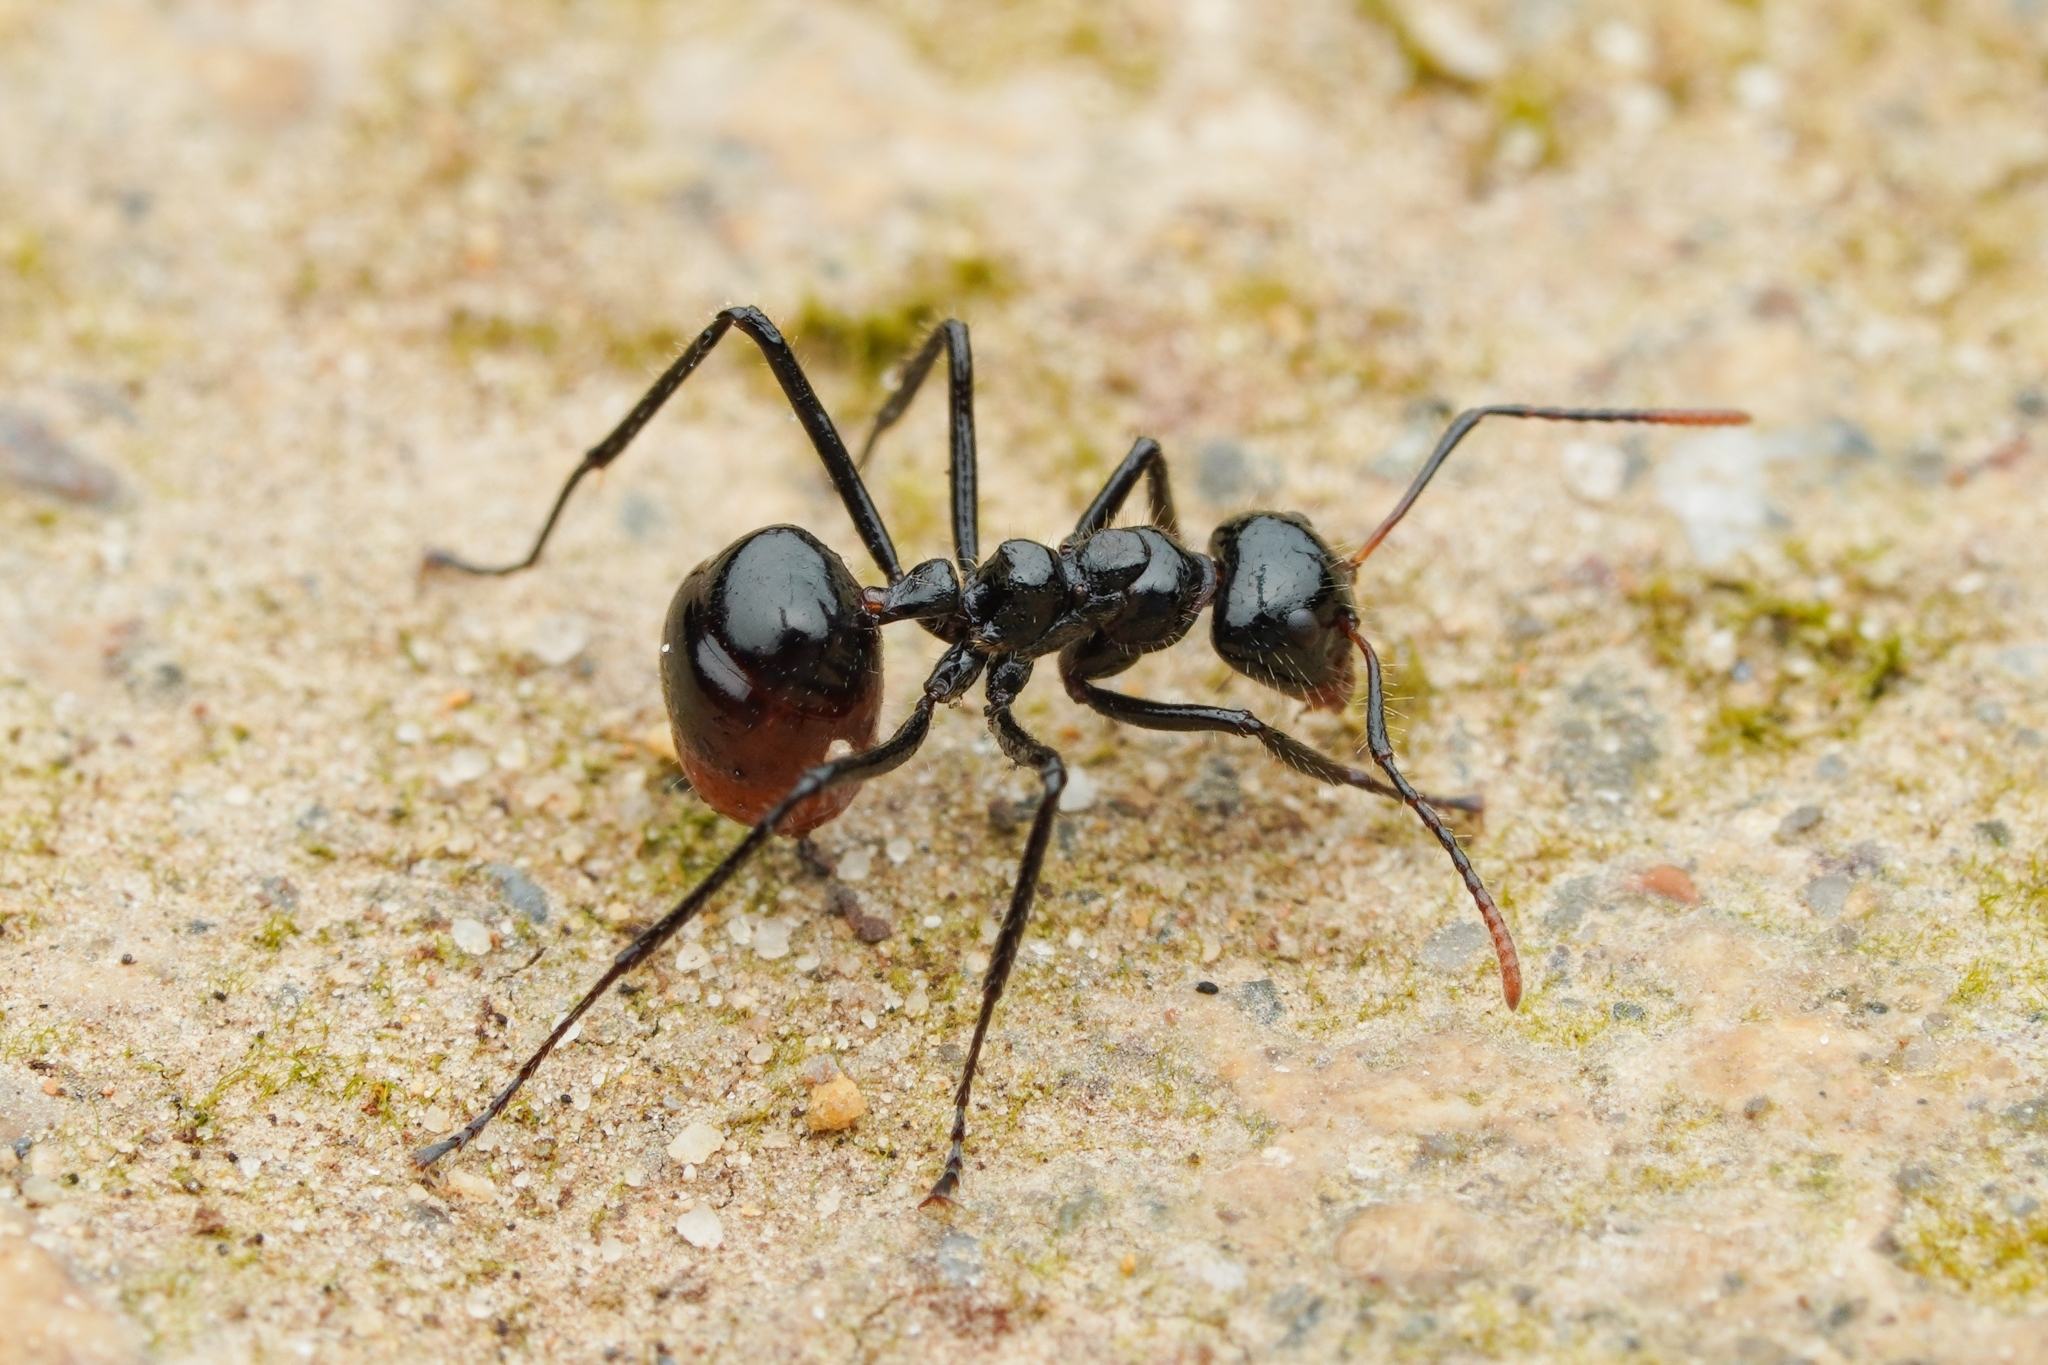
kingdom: Animalia
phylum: Arthropoda
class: Insecta
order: Hymenoptera
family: Formicidae
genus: Dolichoderus
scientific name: Dolichoderus sulcaticeps
